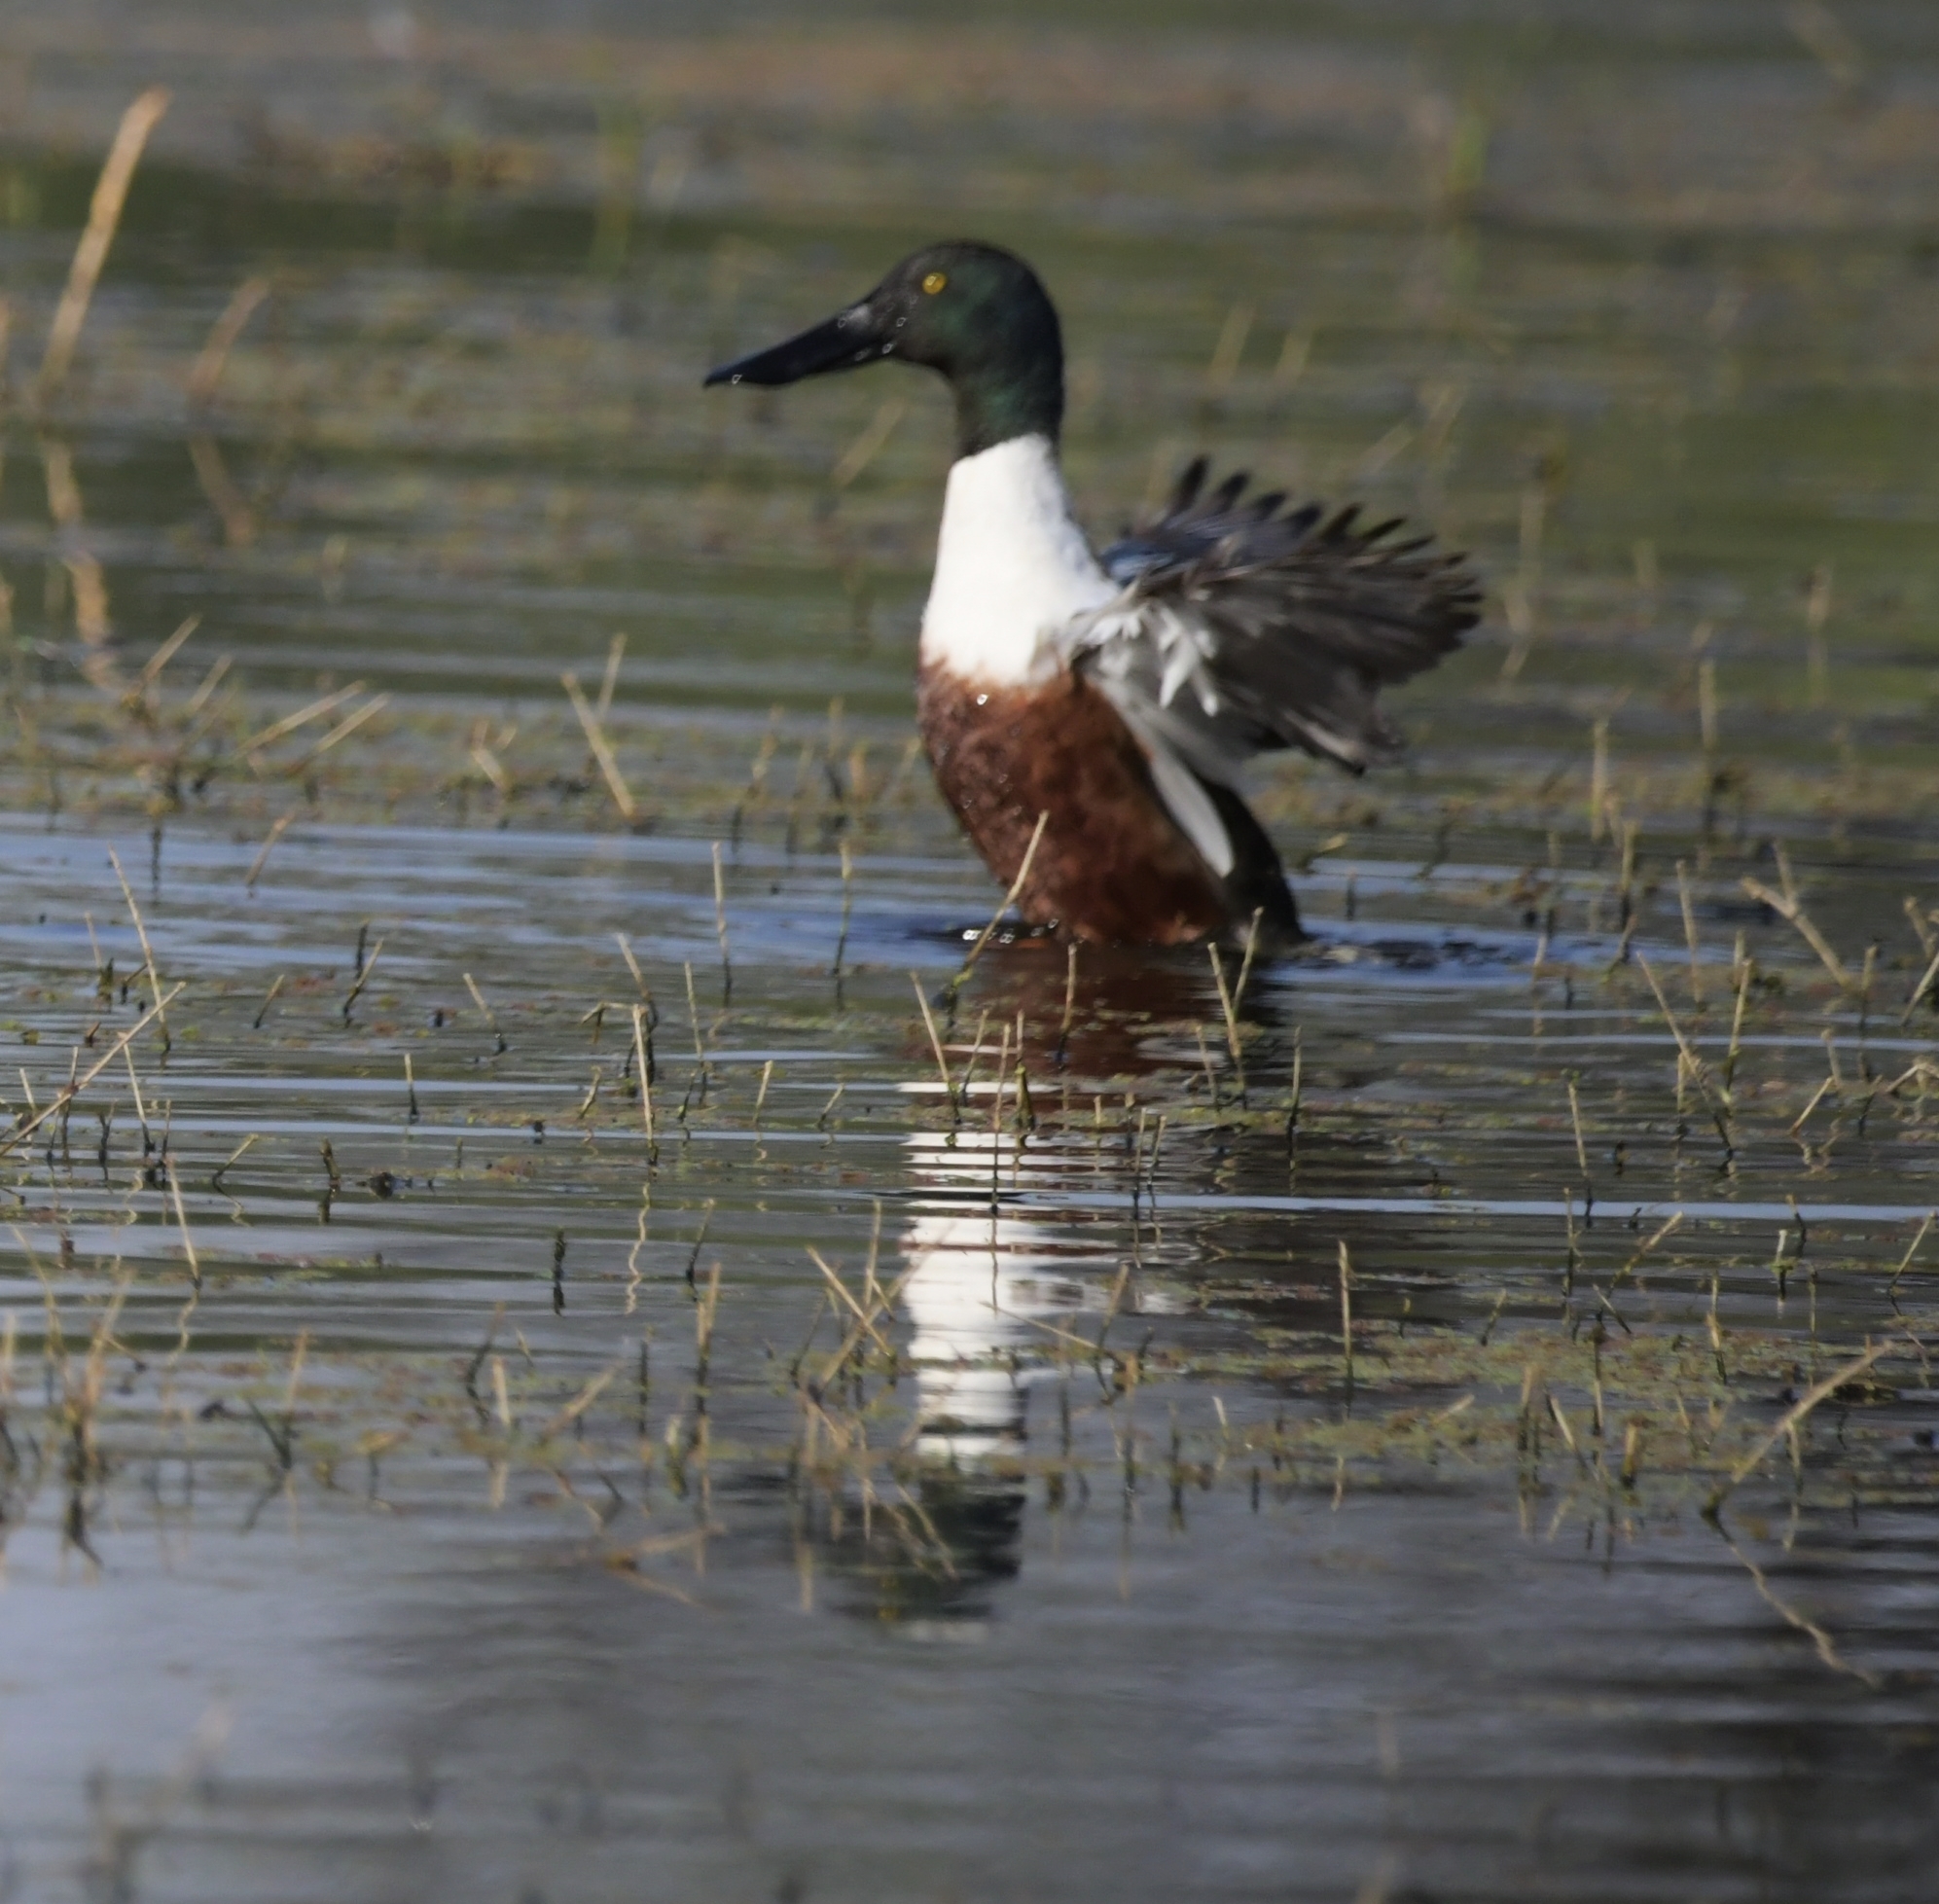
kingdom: Animalia
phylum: Chordata
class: Aves
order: Anseriformes
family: Anatidae
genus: Spatula
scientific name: Spatula clypeata
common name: Northern shoveler
